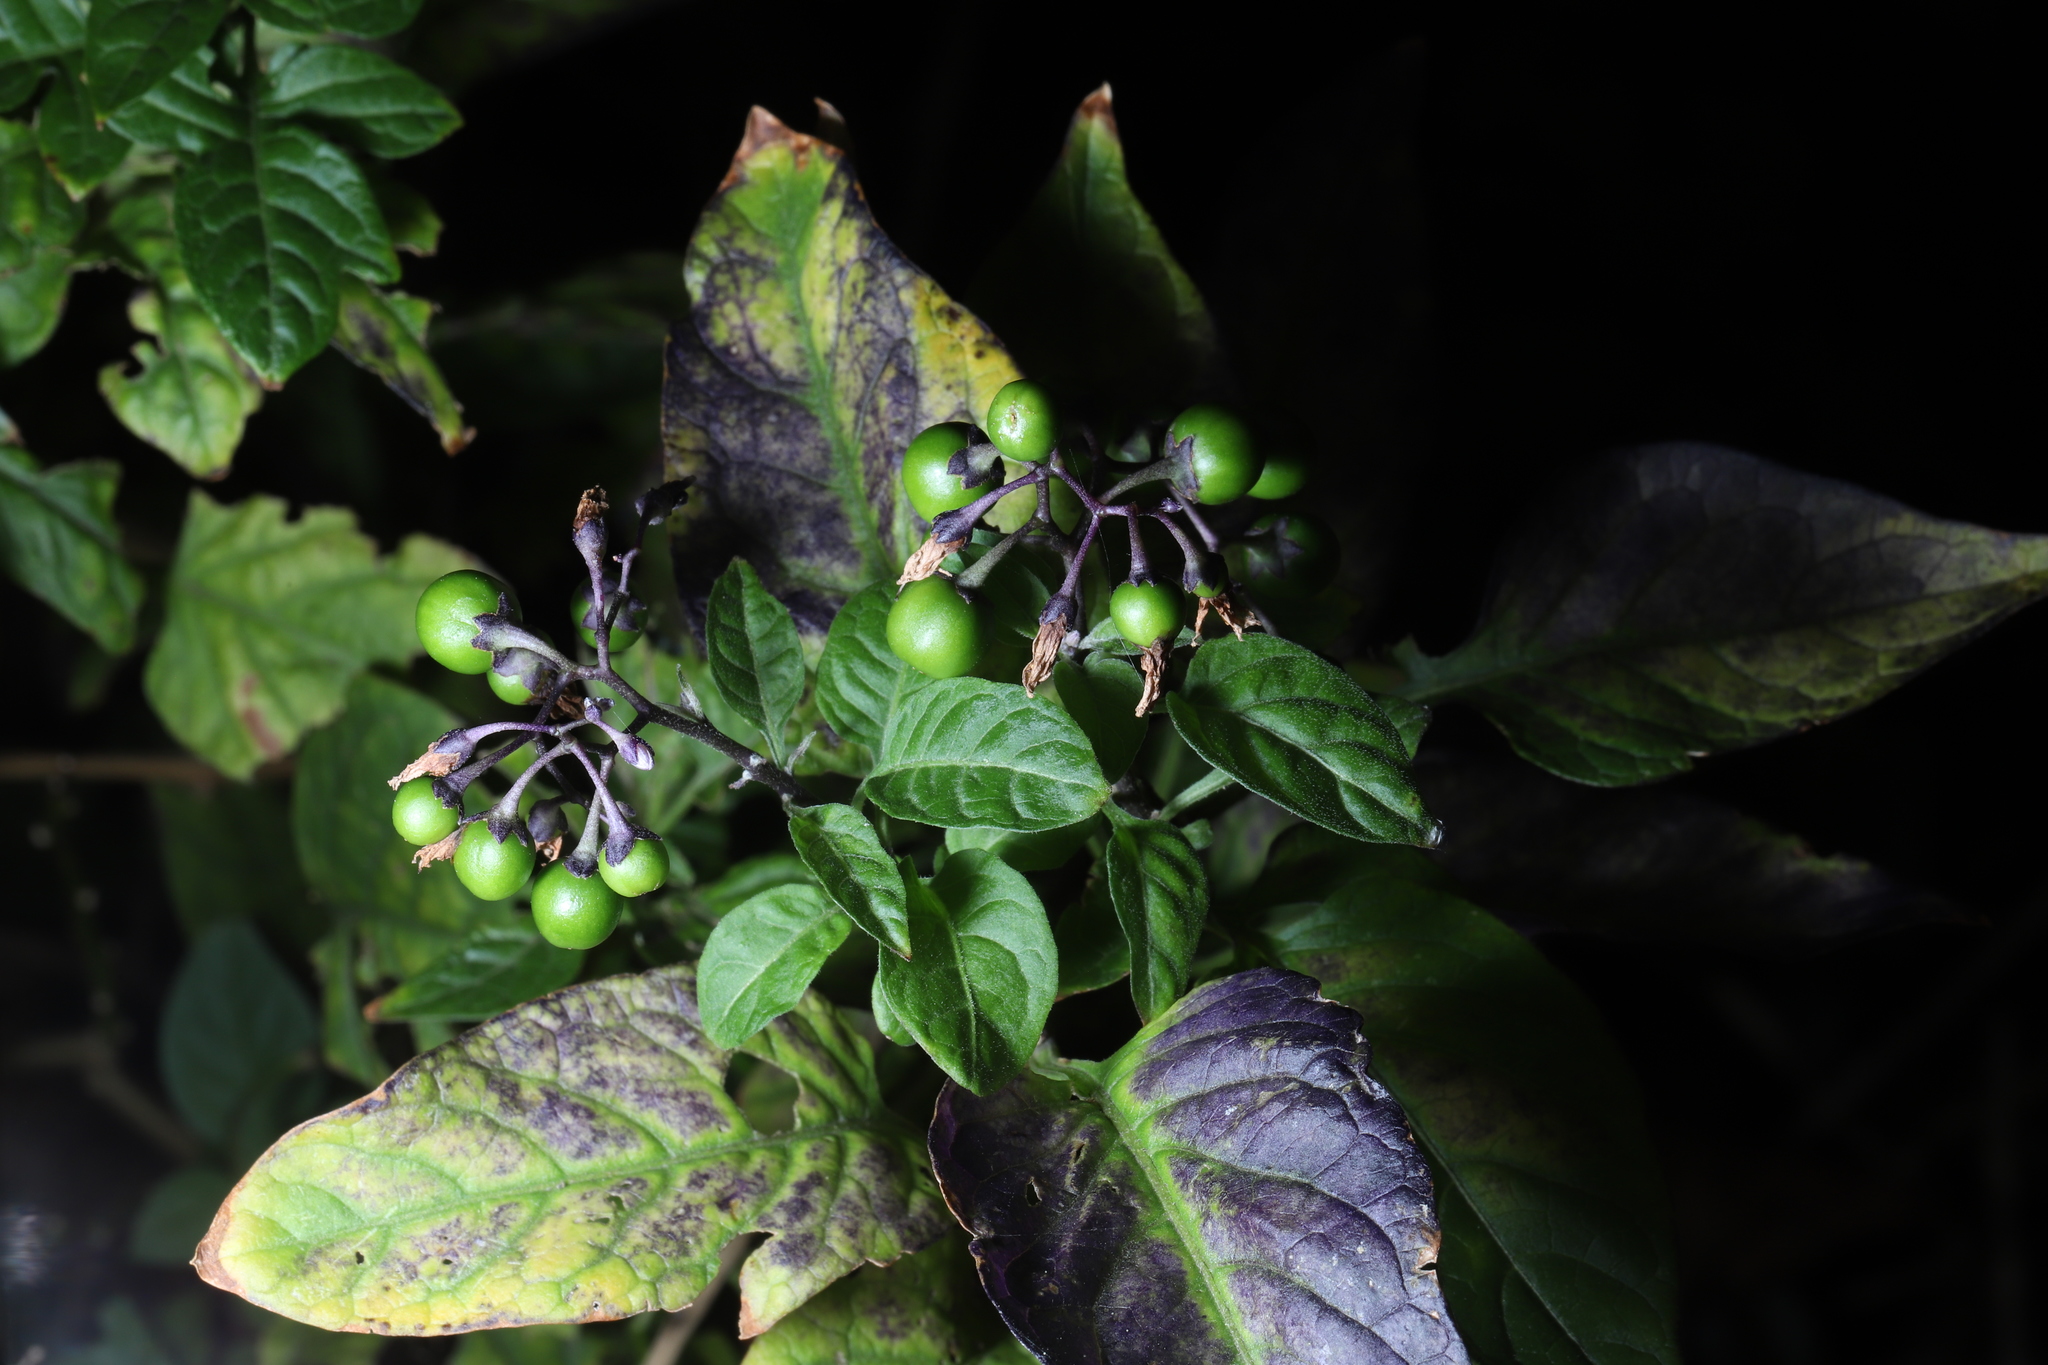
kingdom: Plantae
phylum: Tracheophyta
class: Magnoliopsida
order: Solanales
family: Solanaceae
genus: Solanum
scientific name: Solanum dulcamara
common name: Climbing nightshade
